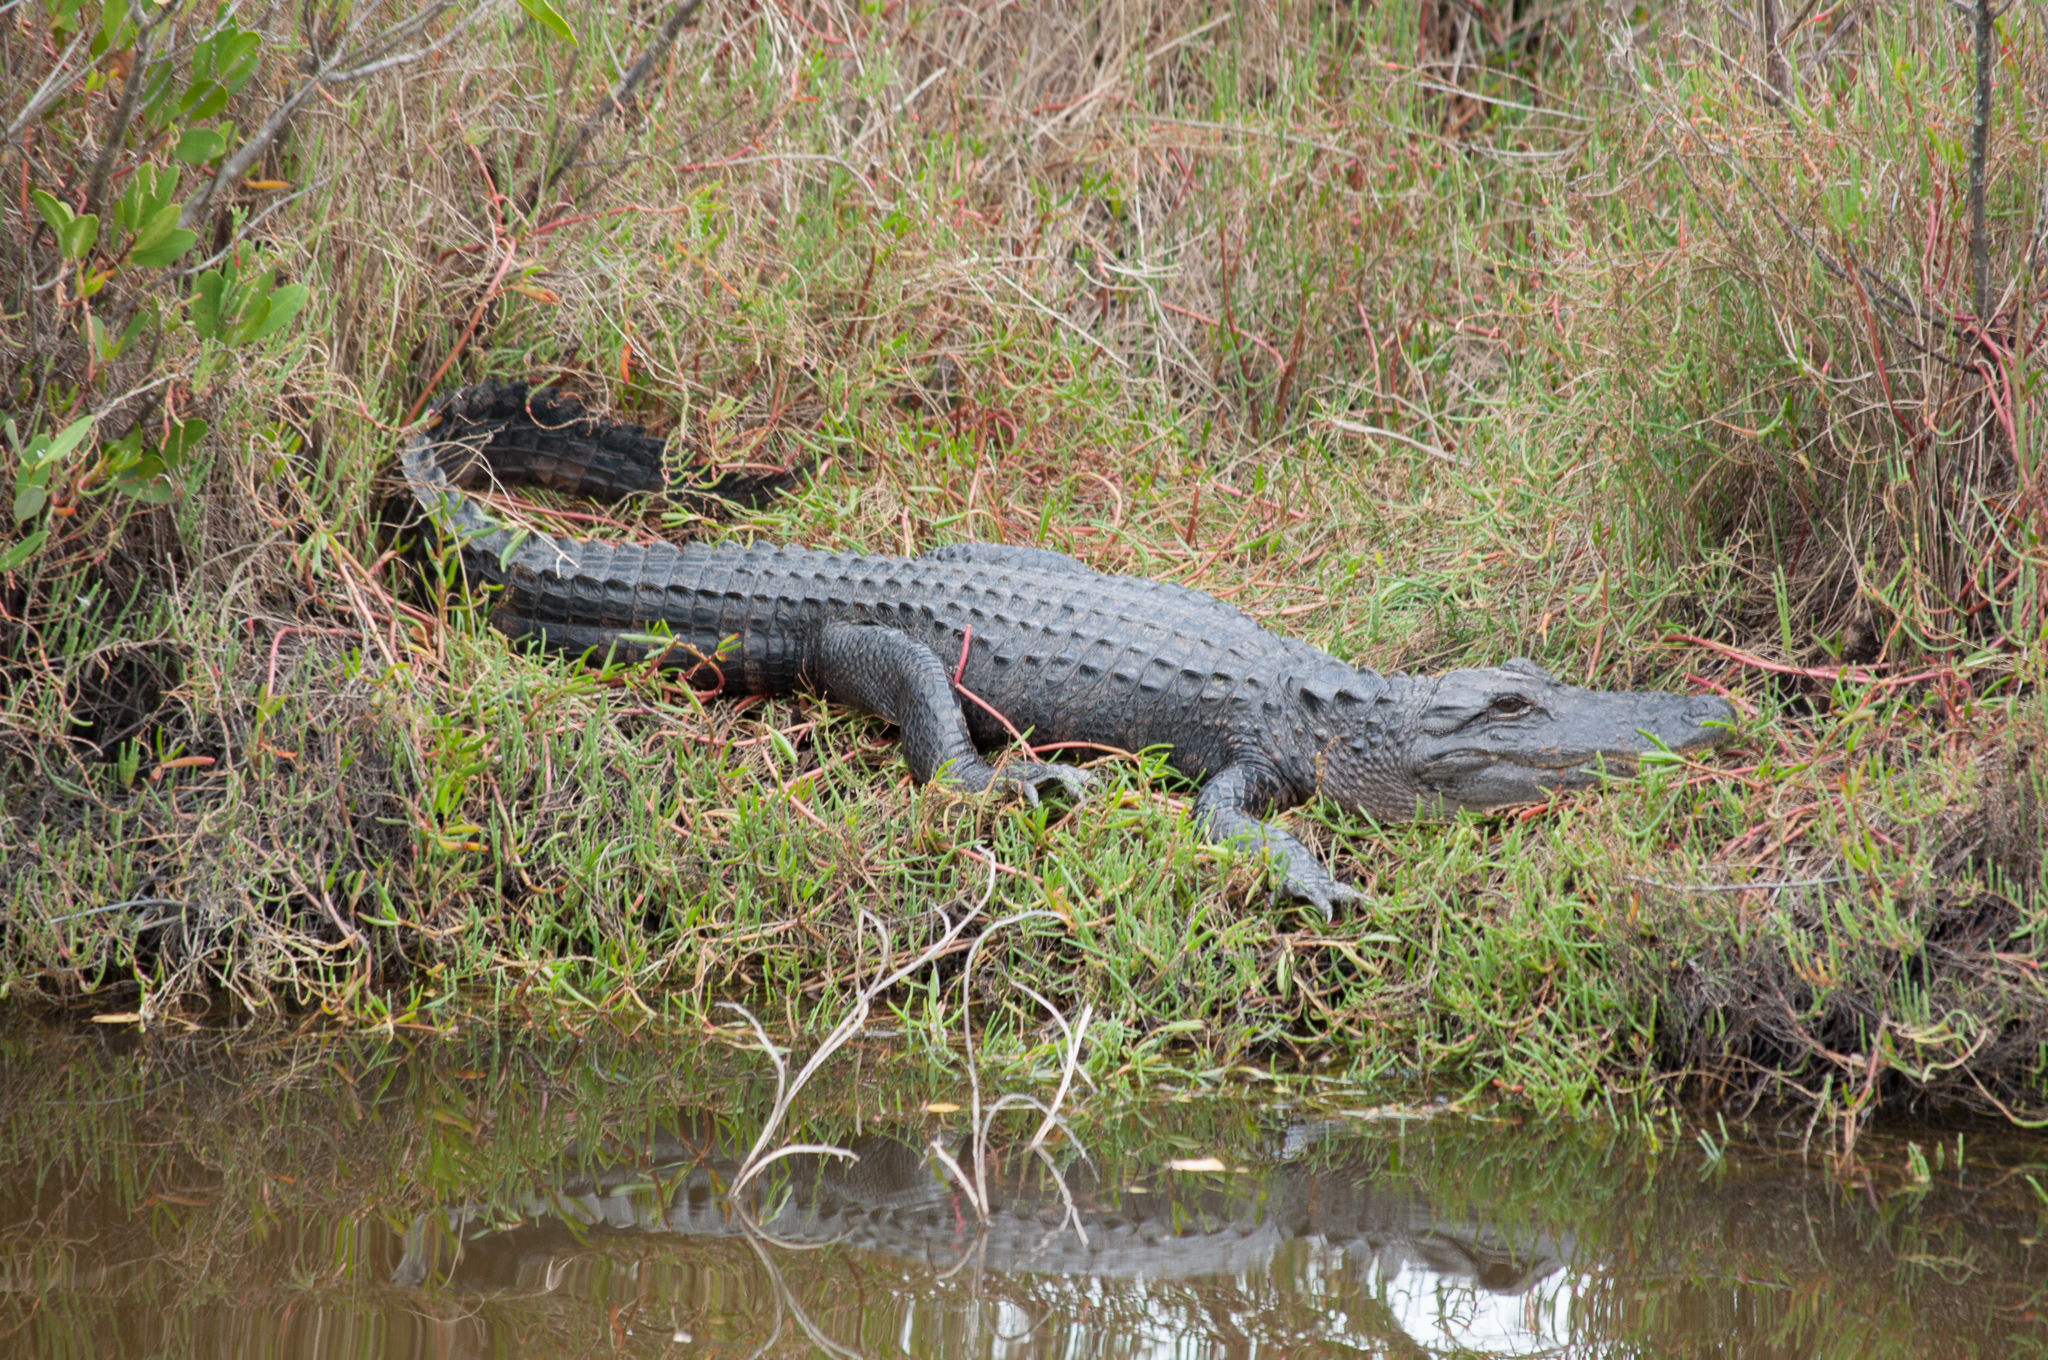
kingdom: Animalia
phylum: Chordata
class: Crocodylia
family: Alligatoridae
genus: Alligator
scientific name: Alligator mississippiensis
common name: American alligator
